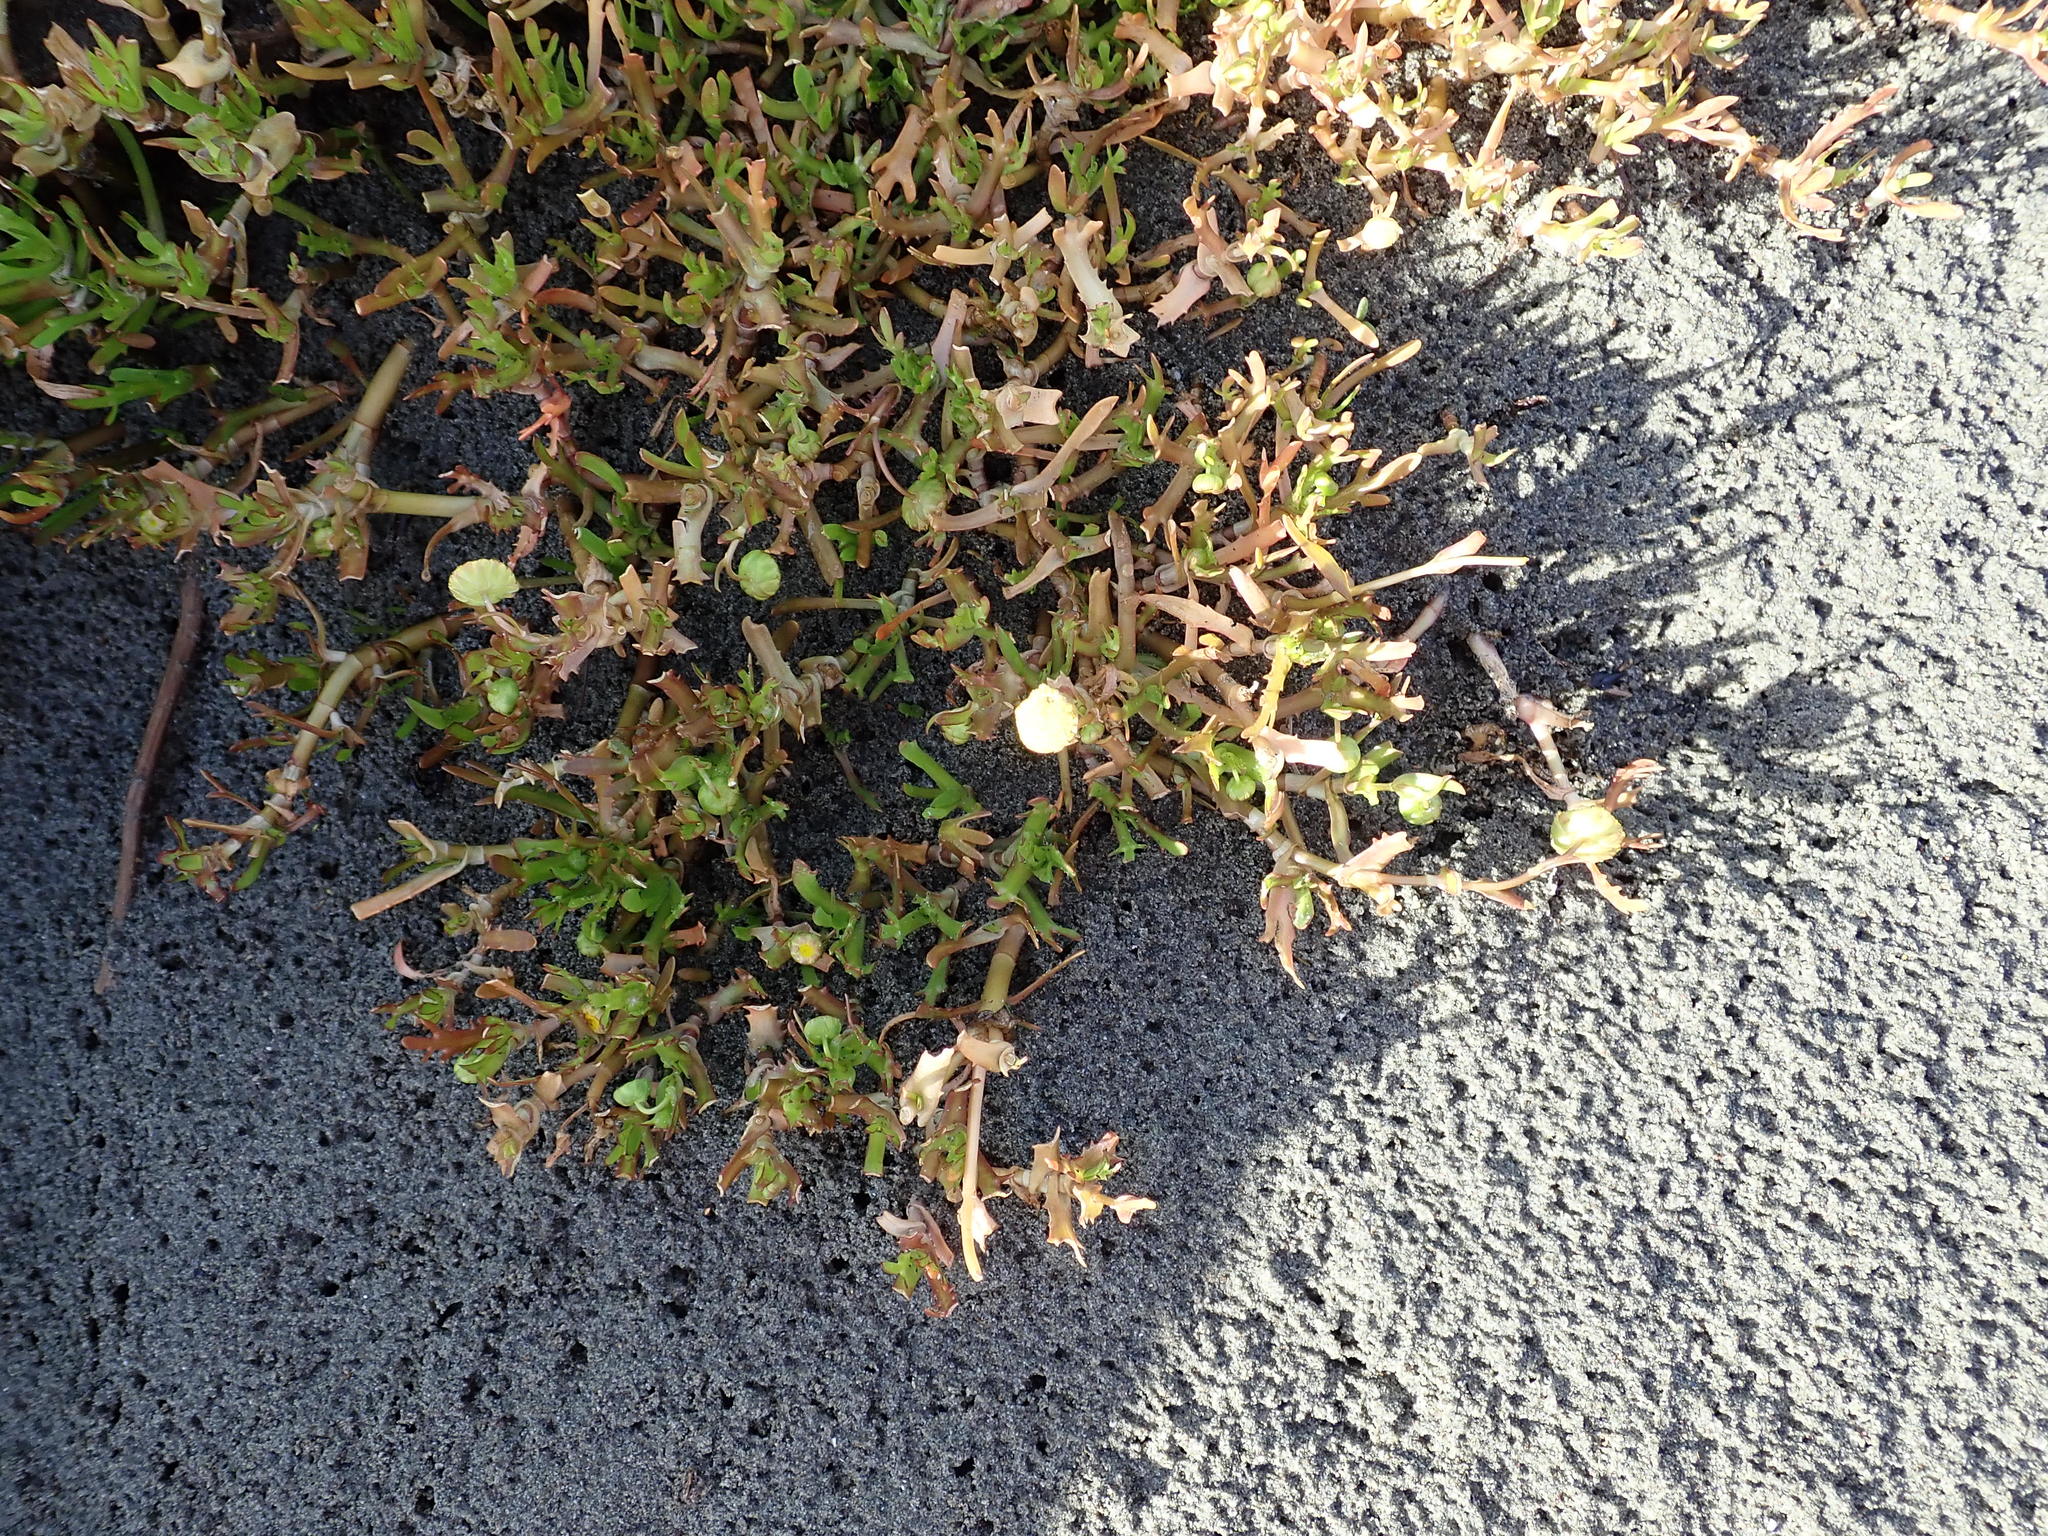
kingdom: Plantae
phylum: Tracheophyta
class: Magnoliopsida
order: Asterales
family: Asteraceae
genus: Cotula
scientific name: Cotula coronopifolia
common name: Buttonweed
